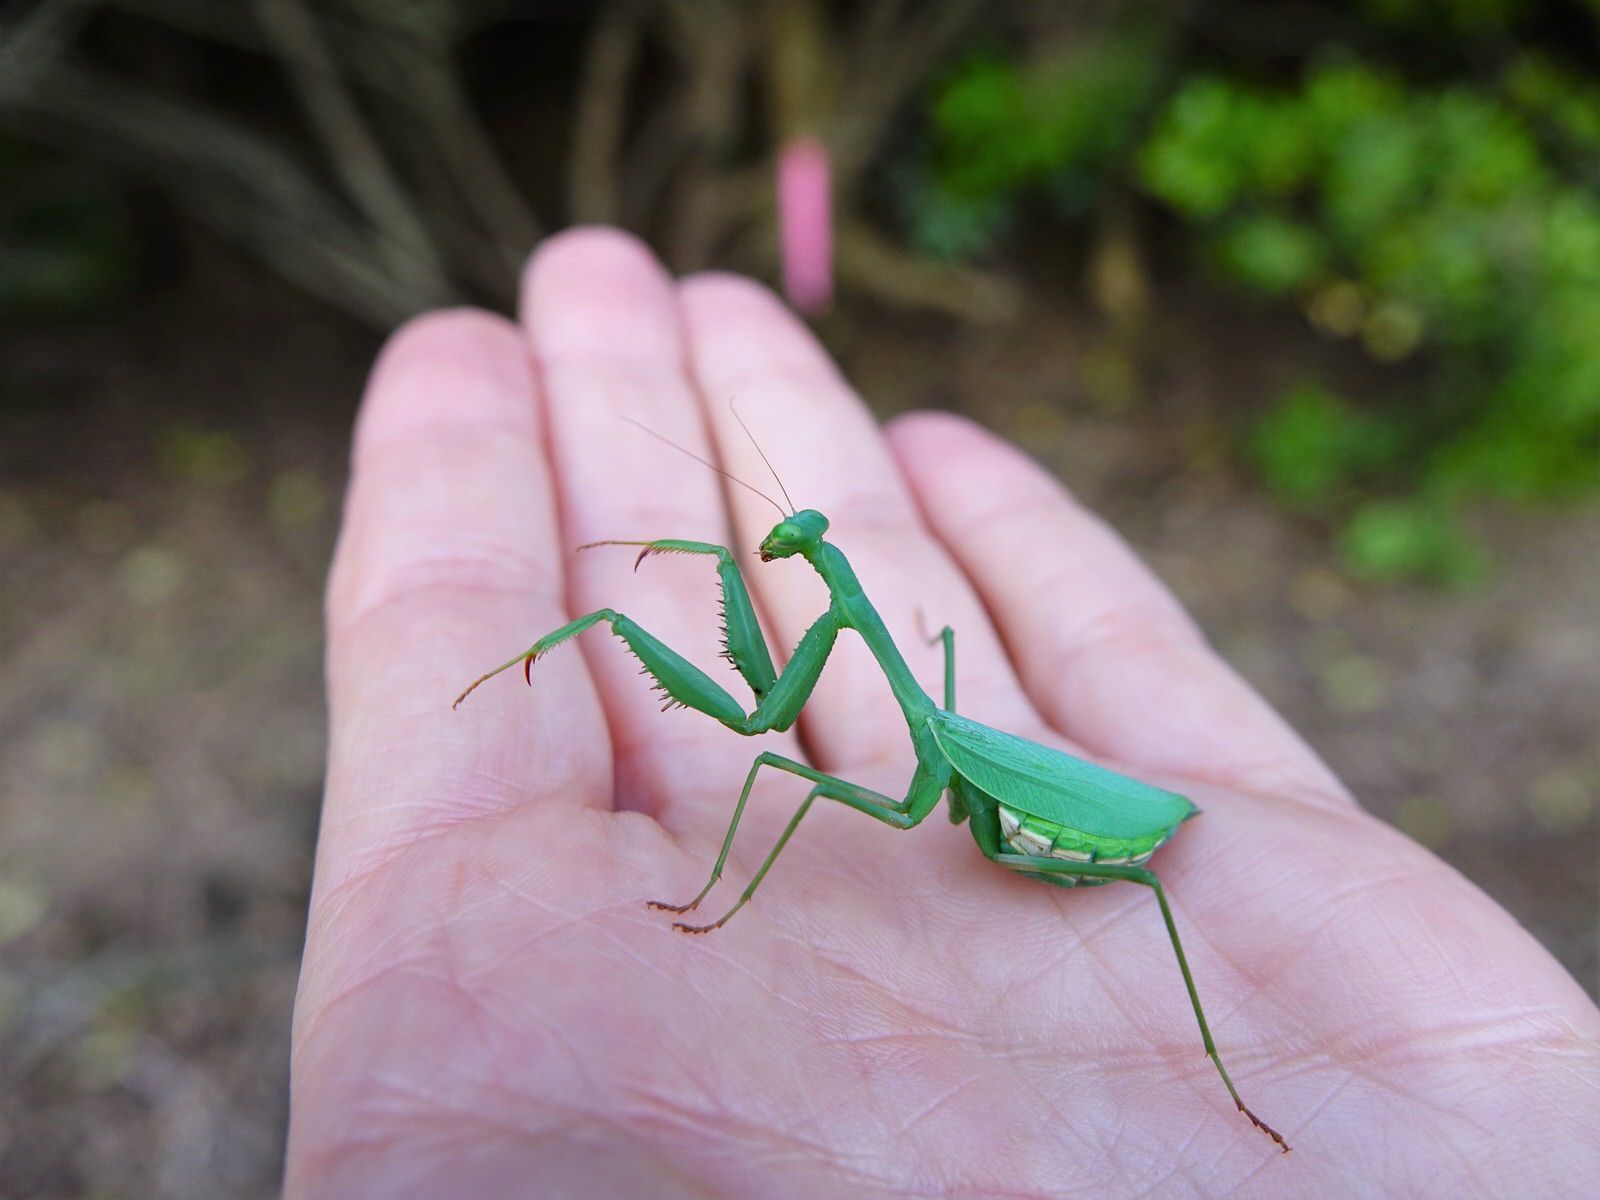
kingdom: Animalia
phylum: Arthropoda
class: Insecta
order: Mantodea
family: Miomantidae
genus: Miomantis
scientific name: Miomantis caffra
